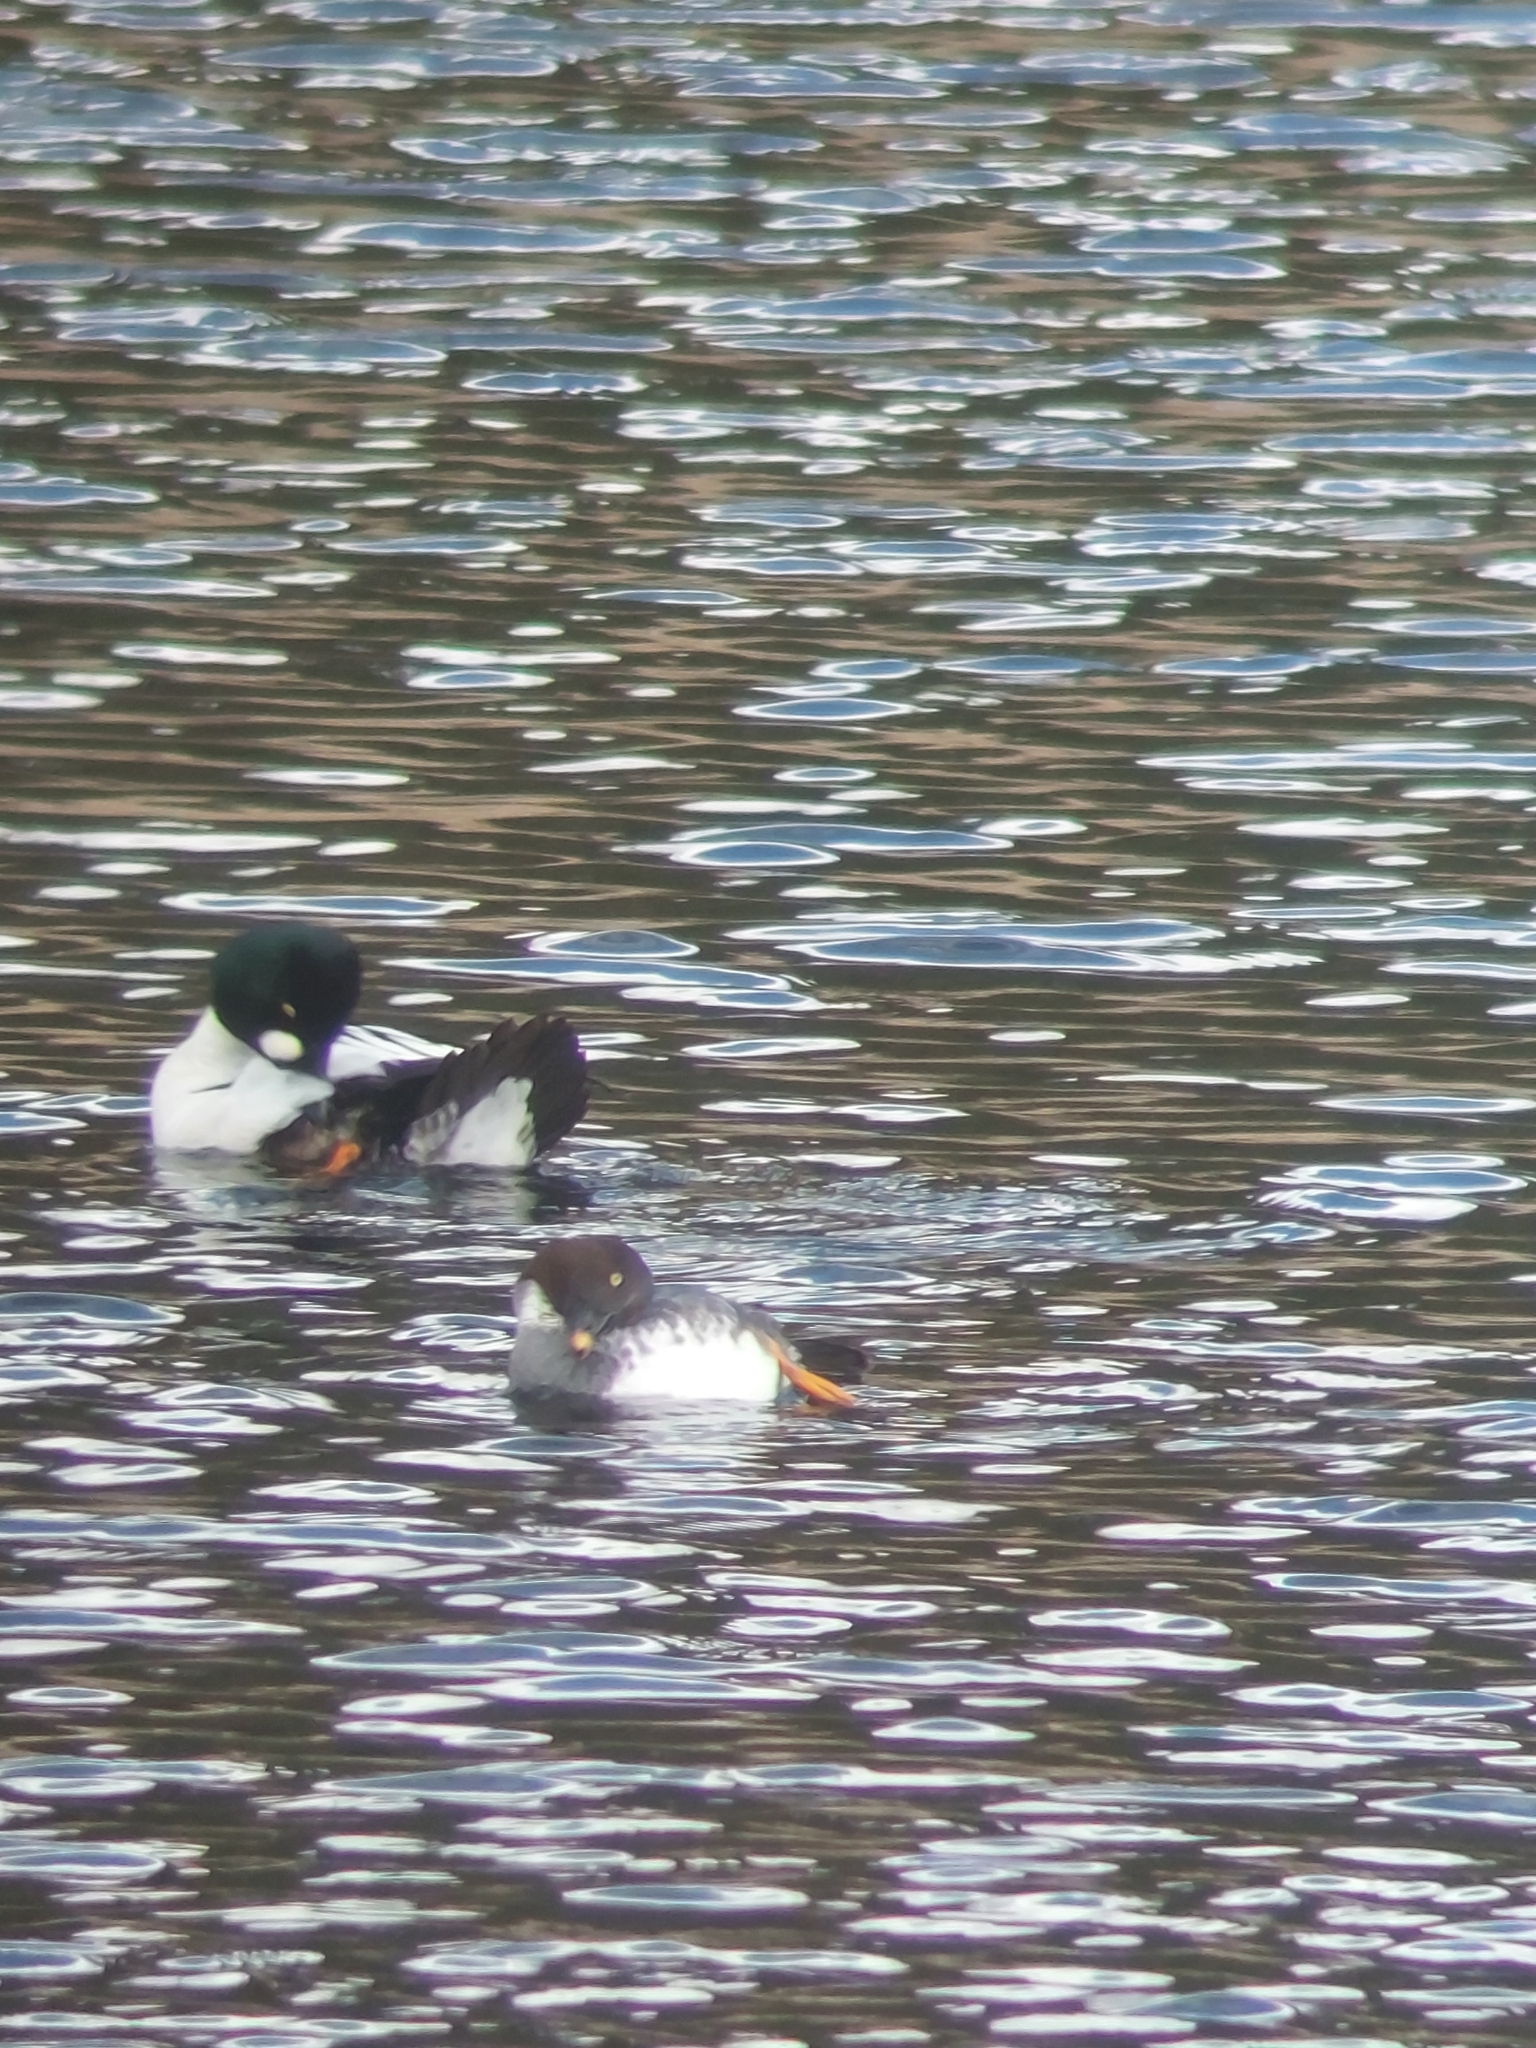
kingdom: Animalia
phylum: Chordata
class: Aves
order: Anseriformes
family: Anatidae
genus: Bucephala
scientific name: Bucephala clangula
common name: Common goldeneye
